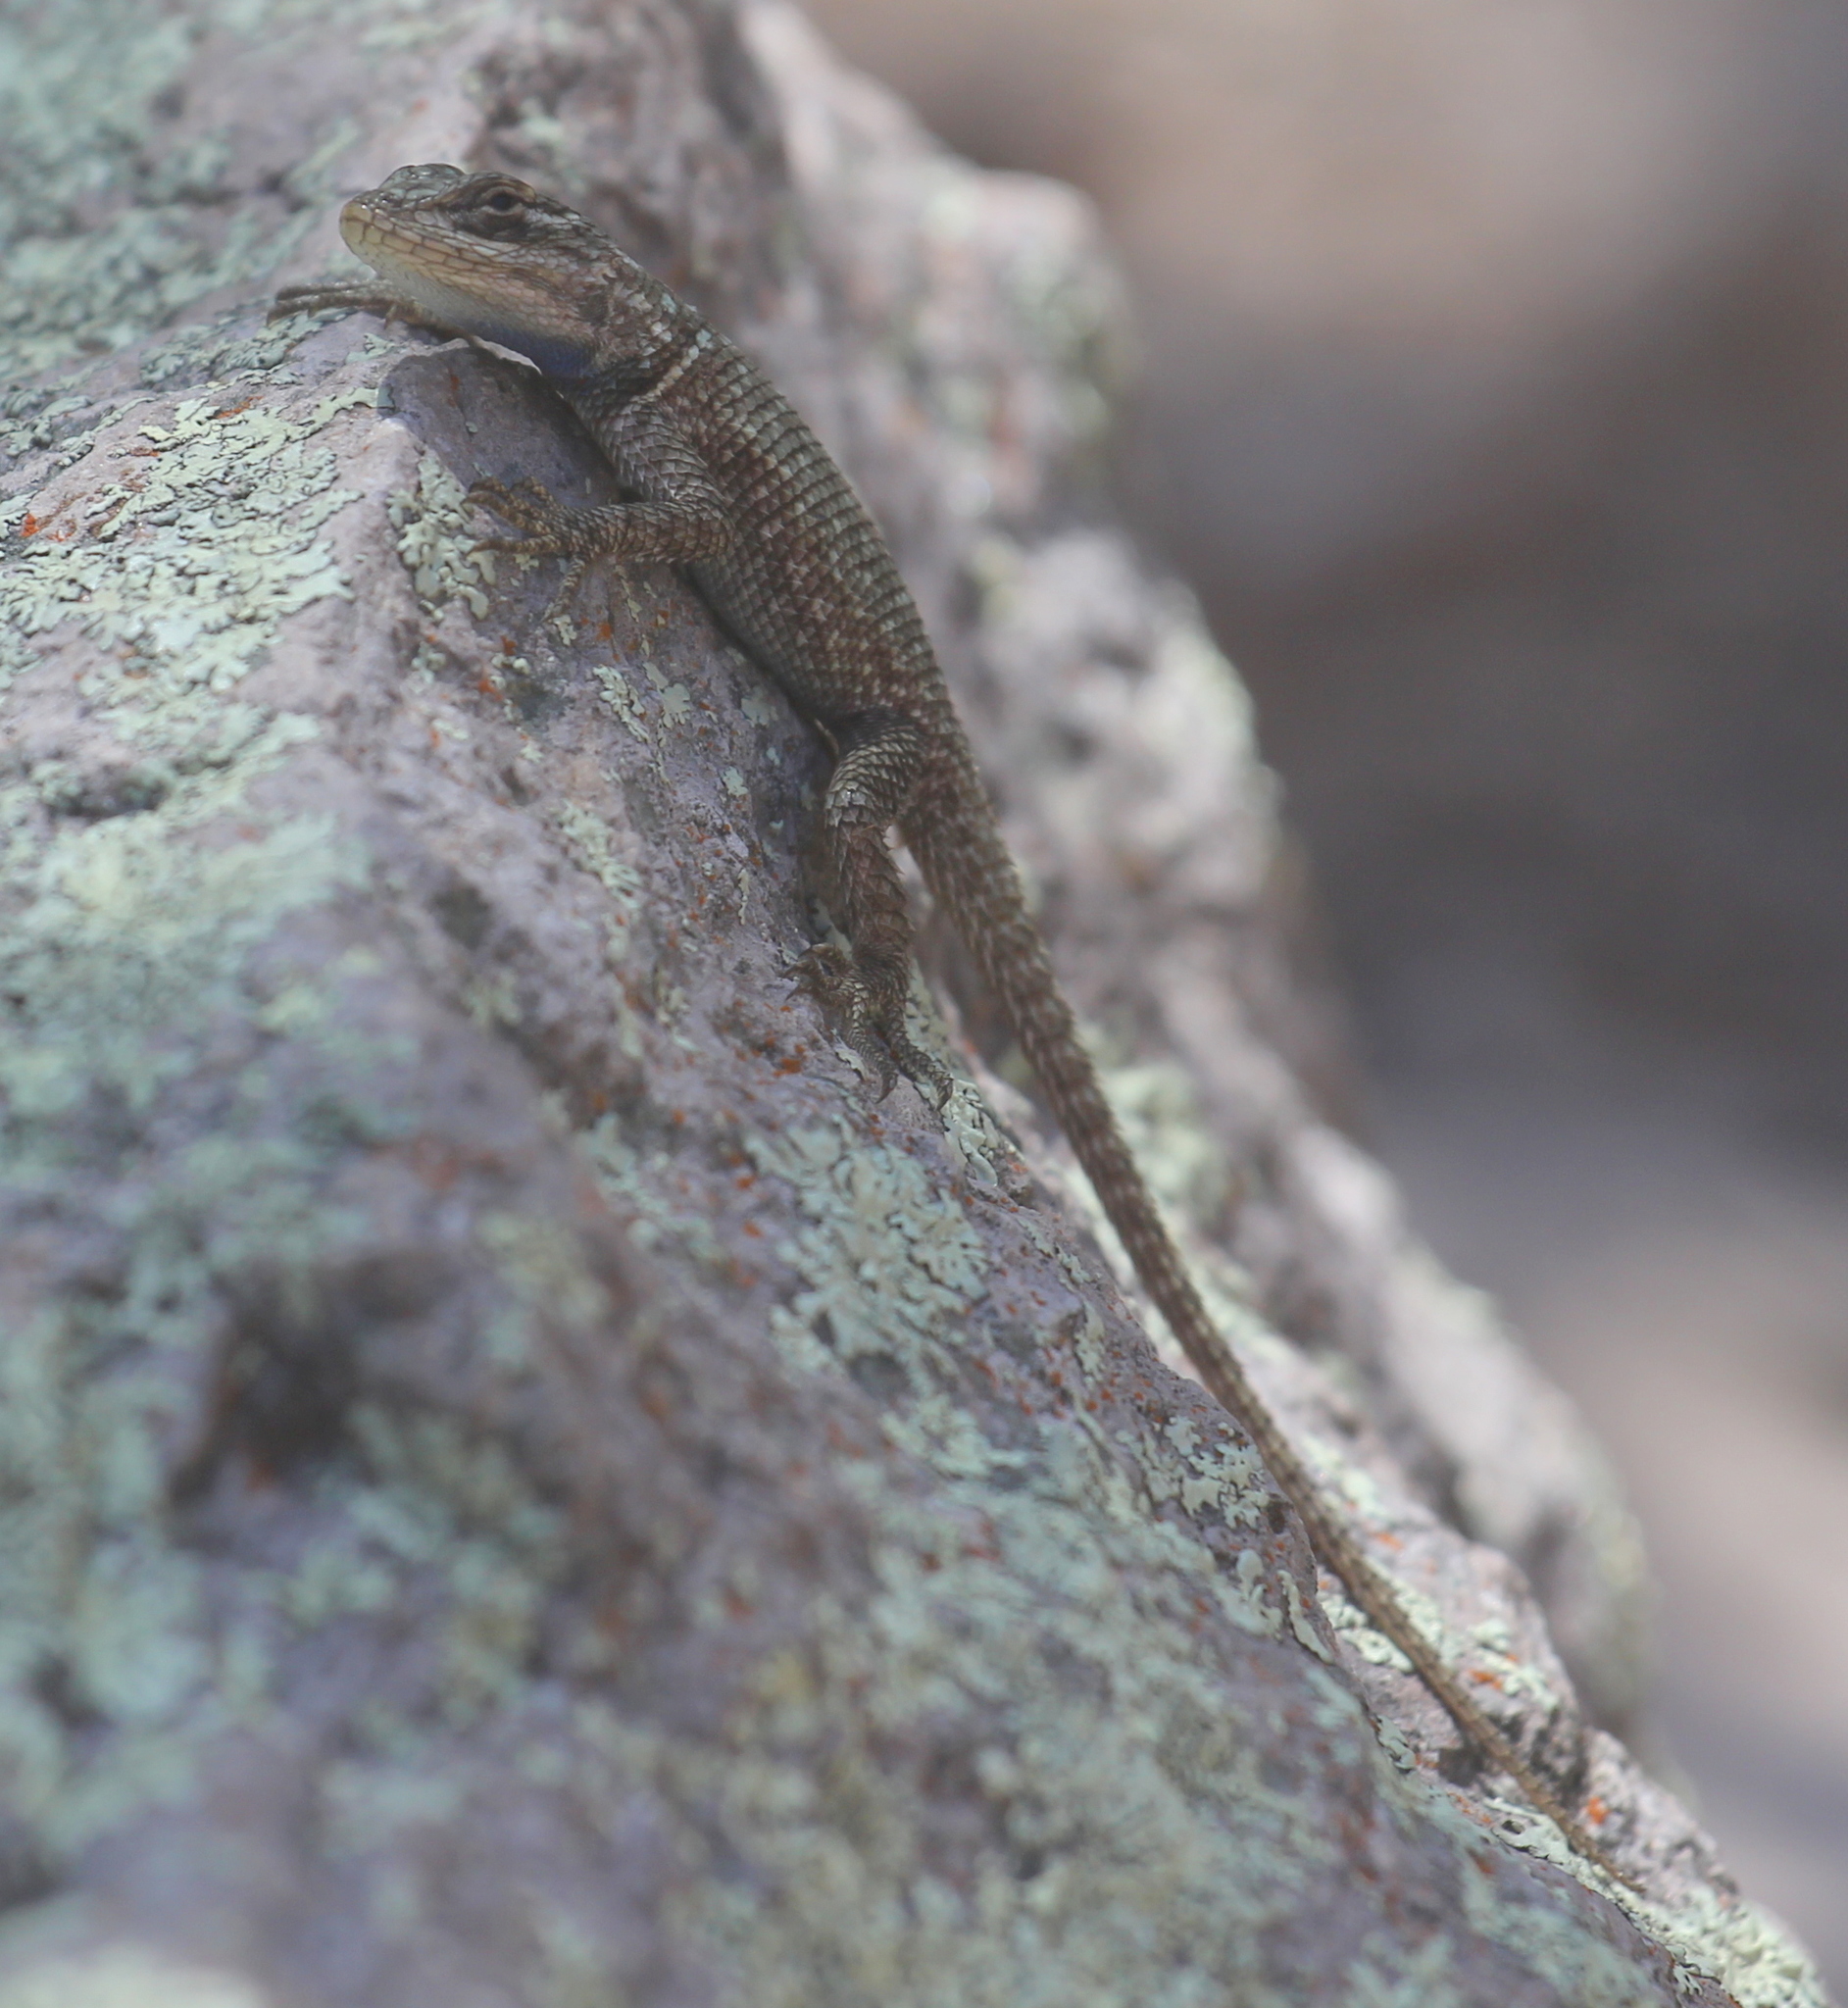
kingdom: Animalia
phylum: Chordata
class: Squamata
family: Phrynosomatidae
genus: Sceloporus
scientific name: Sceloporus jarrovii
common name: Yarrow's spiny lizard
